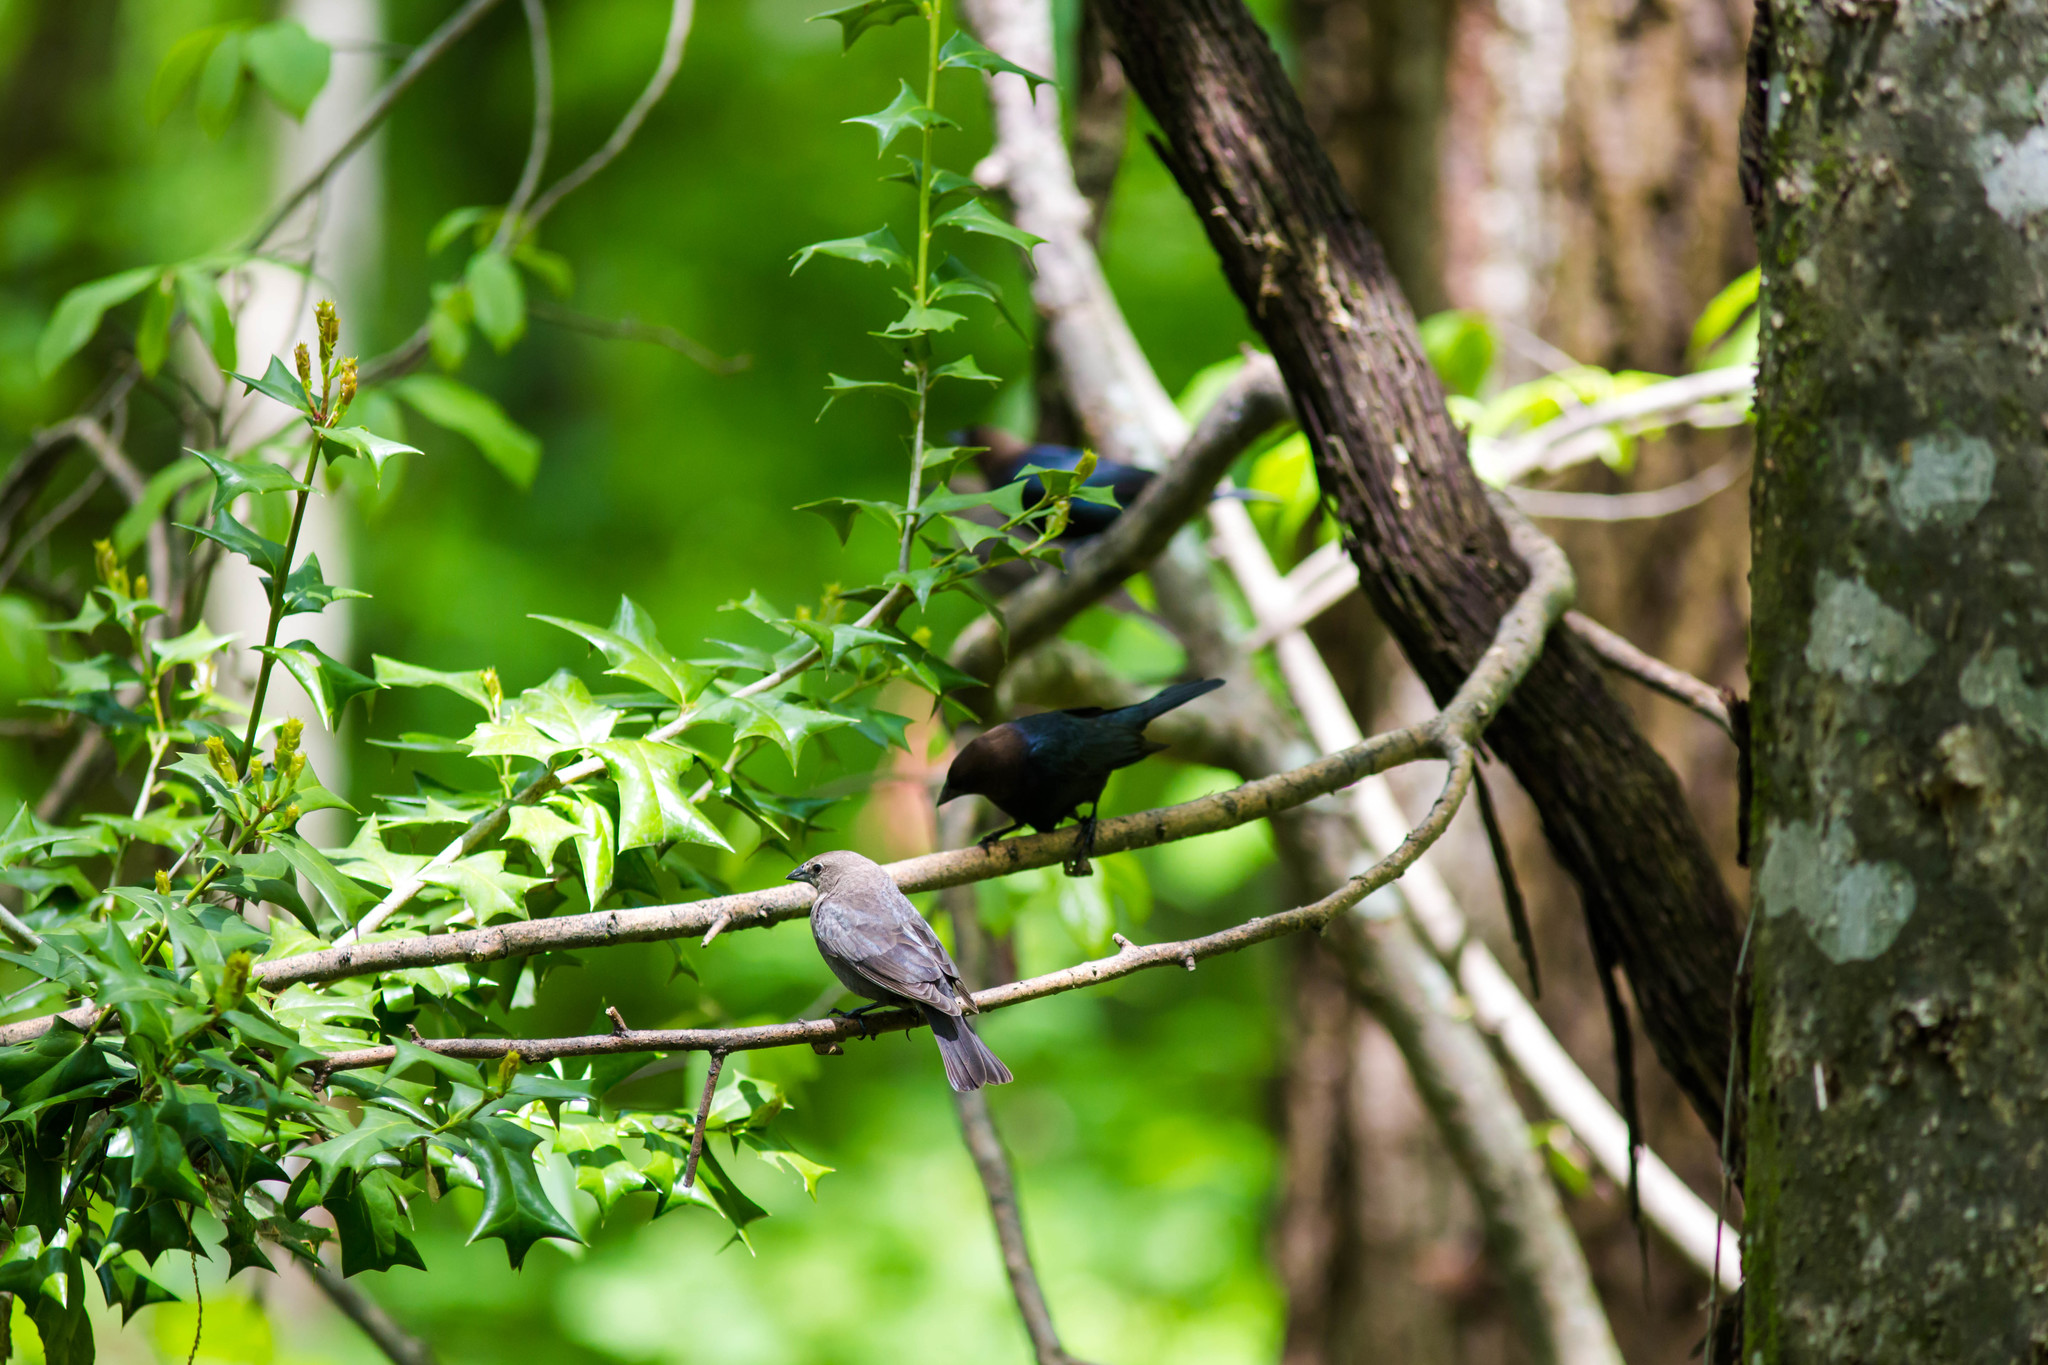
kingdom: Animalia
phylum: Chordata
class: Aves
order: Passeriformes
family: Icteridae
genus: Molothrus
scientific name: Molothrus ater
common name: Brown-headed cowbird
